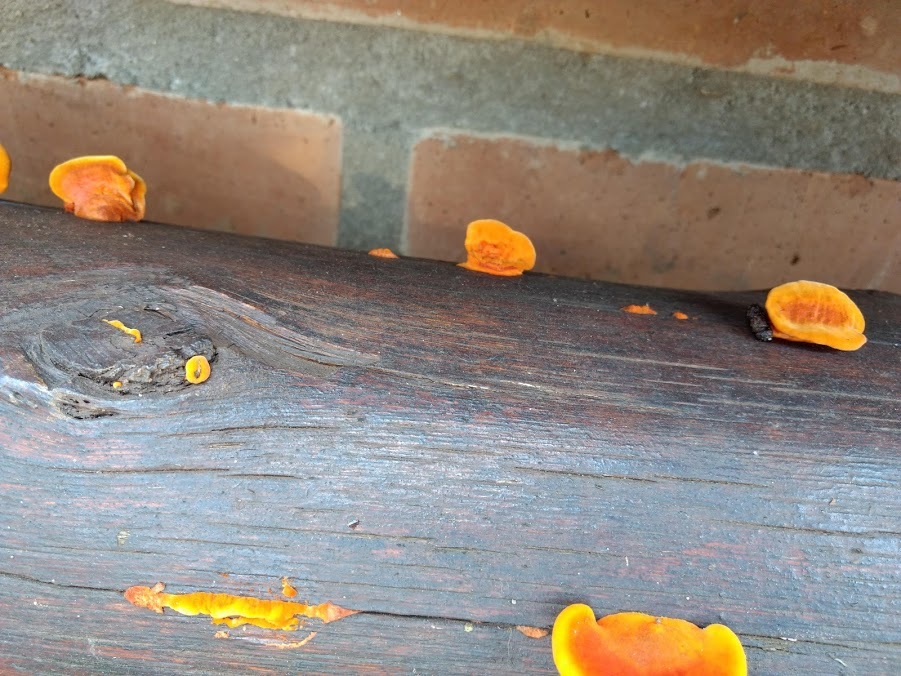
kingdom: Fungi
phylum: Basidiomycota
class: Agaricomycetes
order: Polyporales
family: Polyporaceae
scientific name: Polyporaceae
